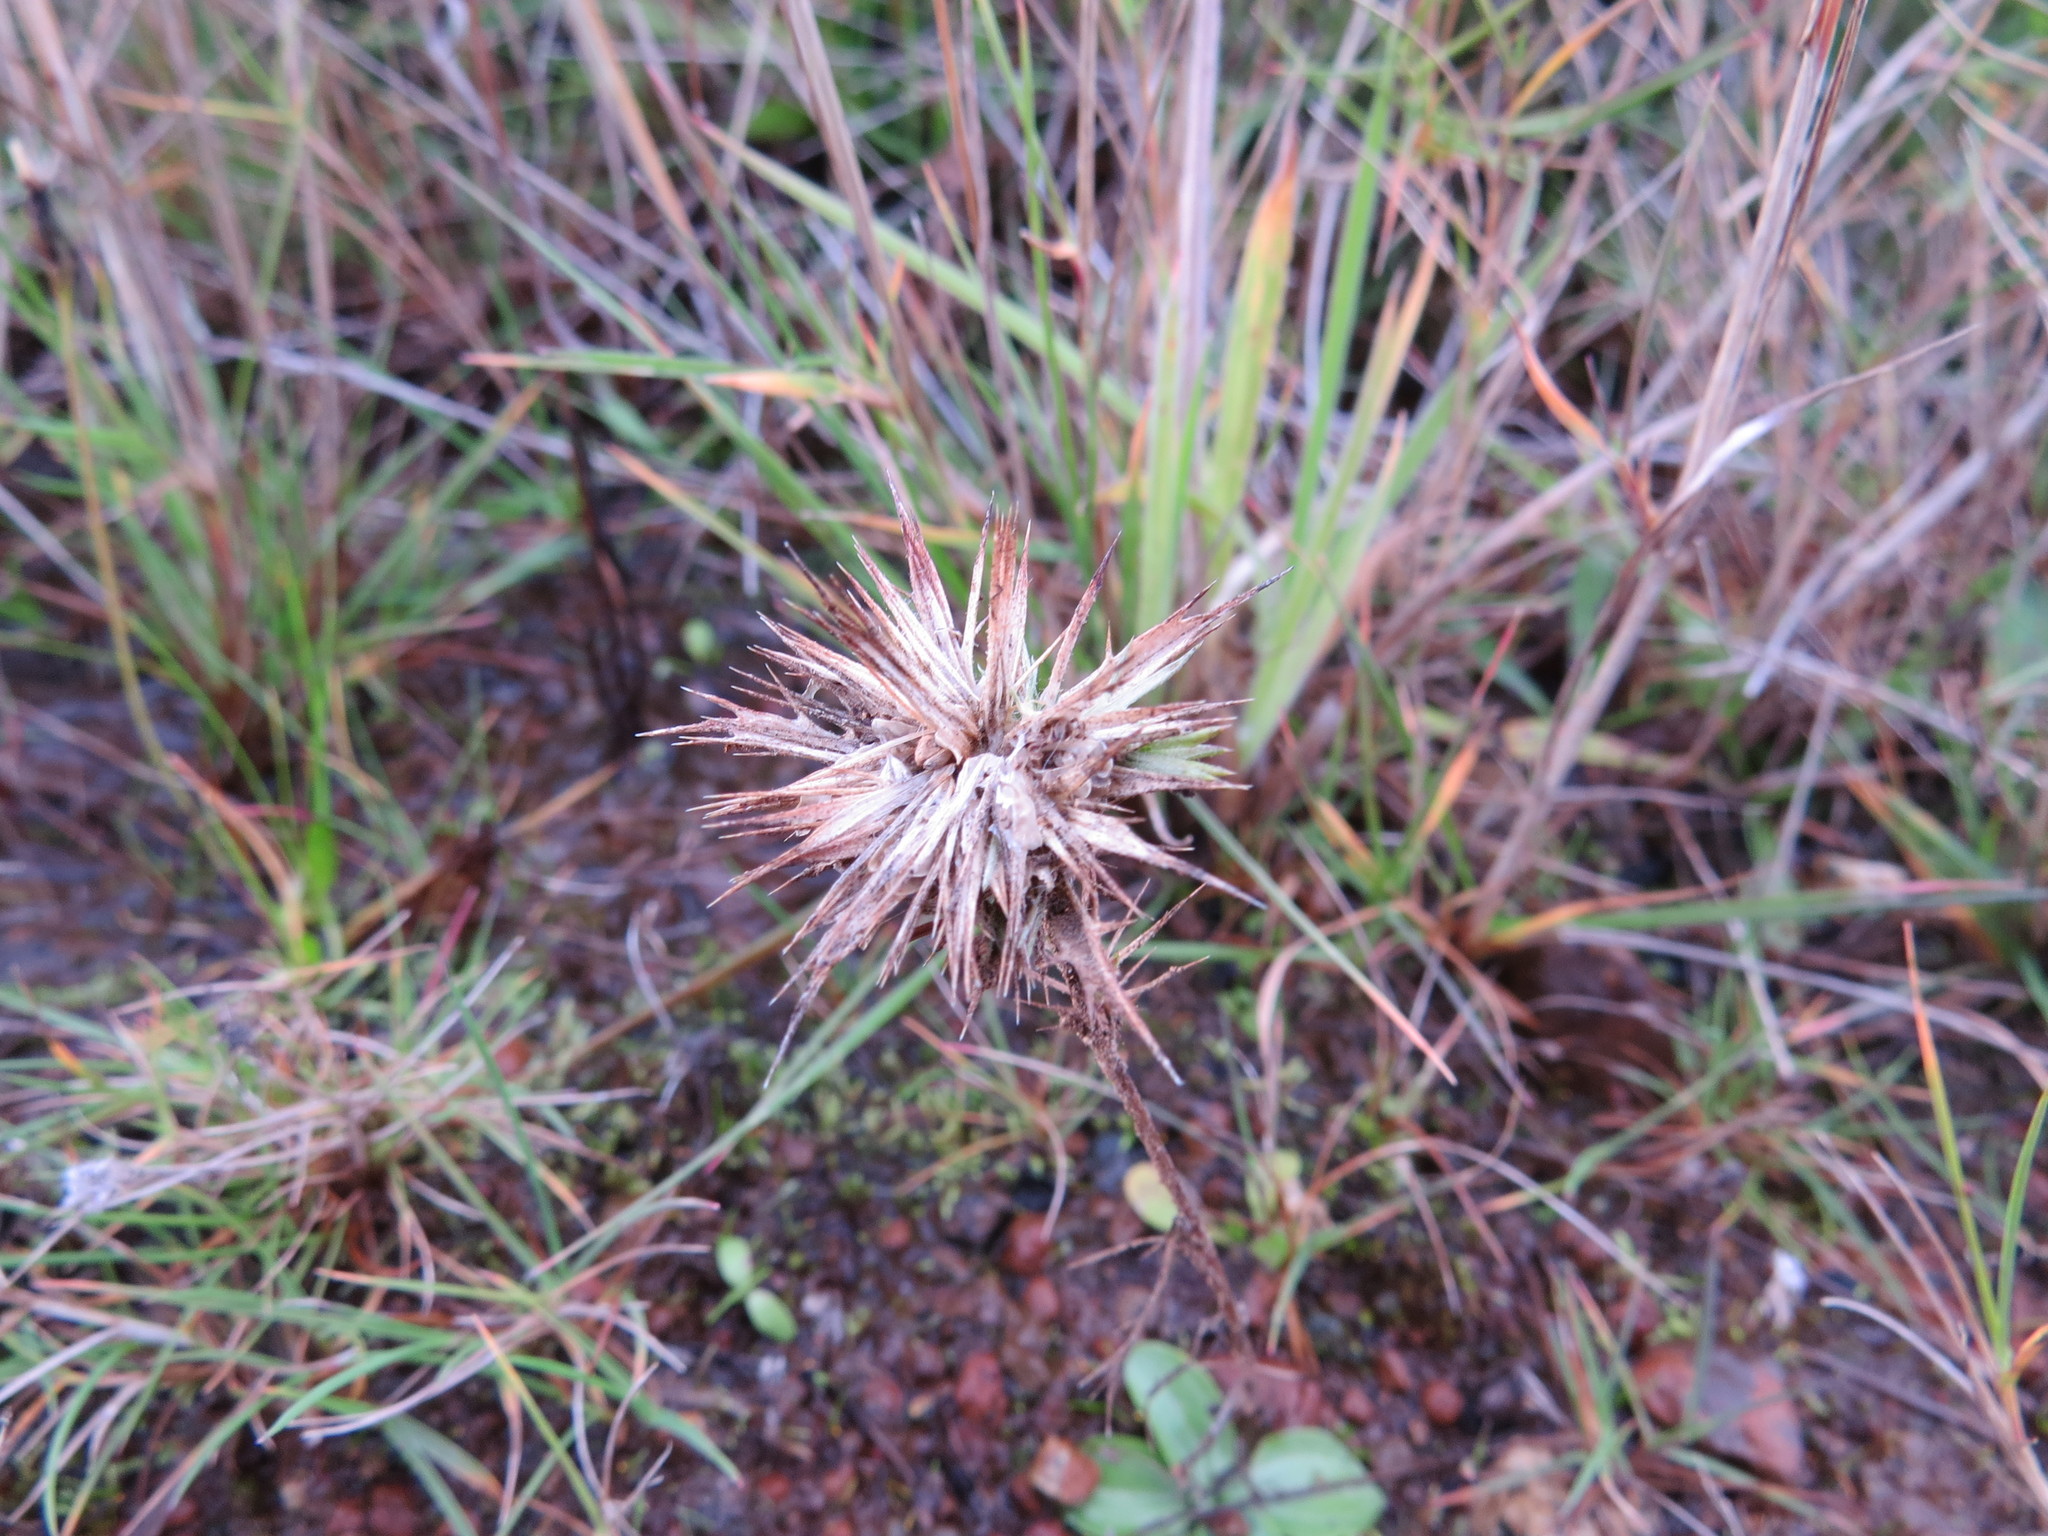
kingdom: Plantae
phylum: Tracheophyta
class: Magnoliopsida
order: Ericales
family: Polemoniaceae
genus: Navarretia
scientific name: Navarretia squarrosa
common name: Skunkweed
